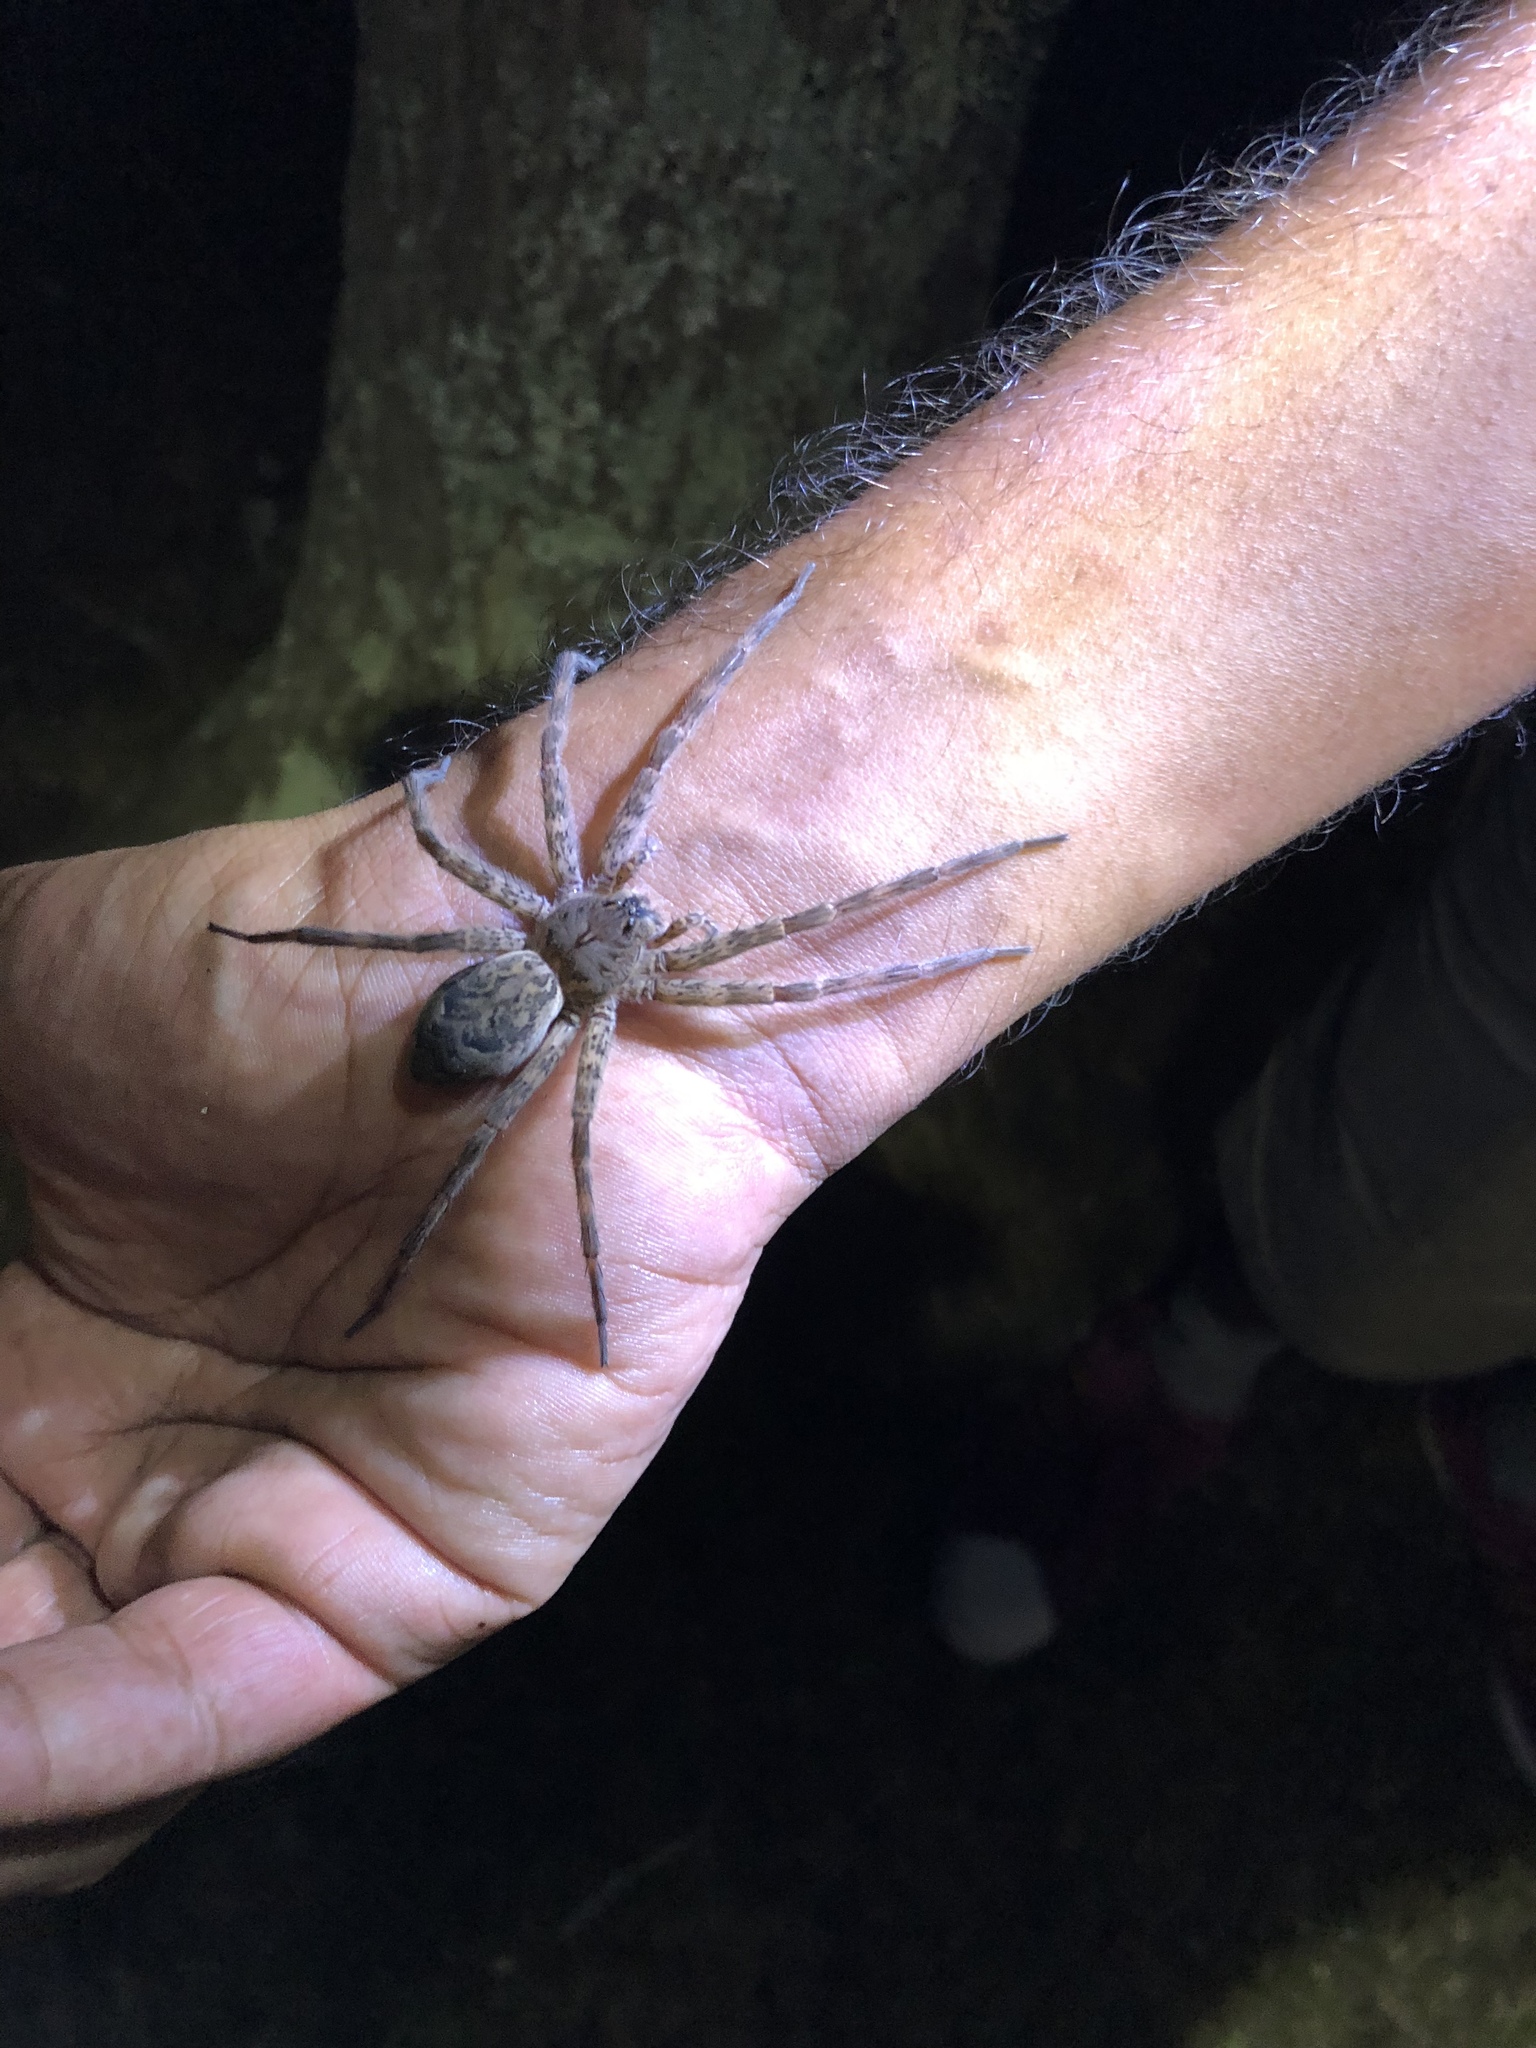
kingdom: Animalia
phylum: Arthropoda
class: Arachnida
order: Araneae
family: Pisauridae
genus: Dolomedes
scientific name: Dolomedes tenebrosus
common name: Dark fishing spider
